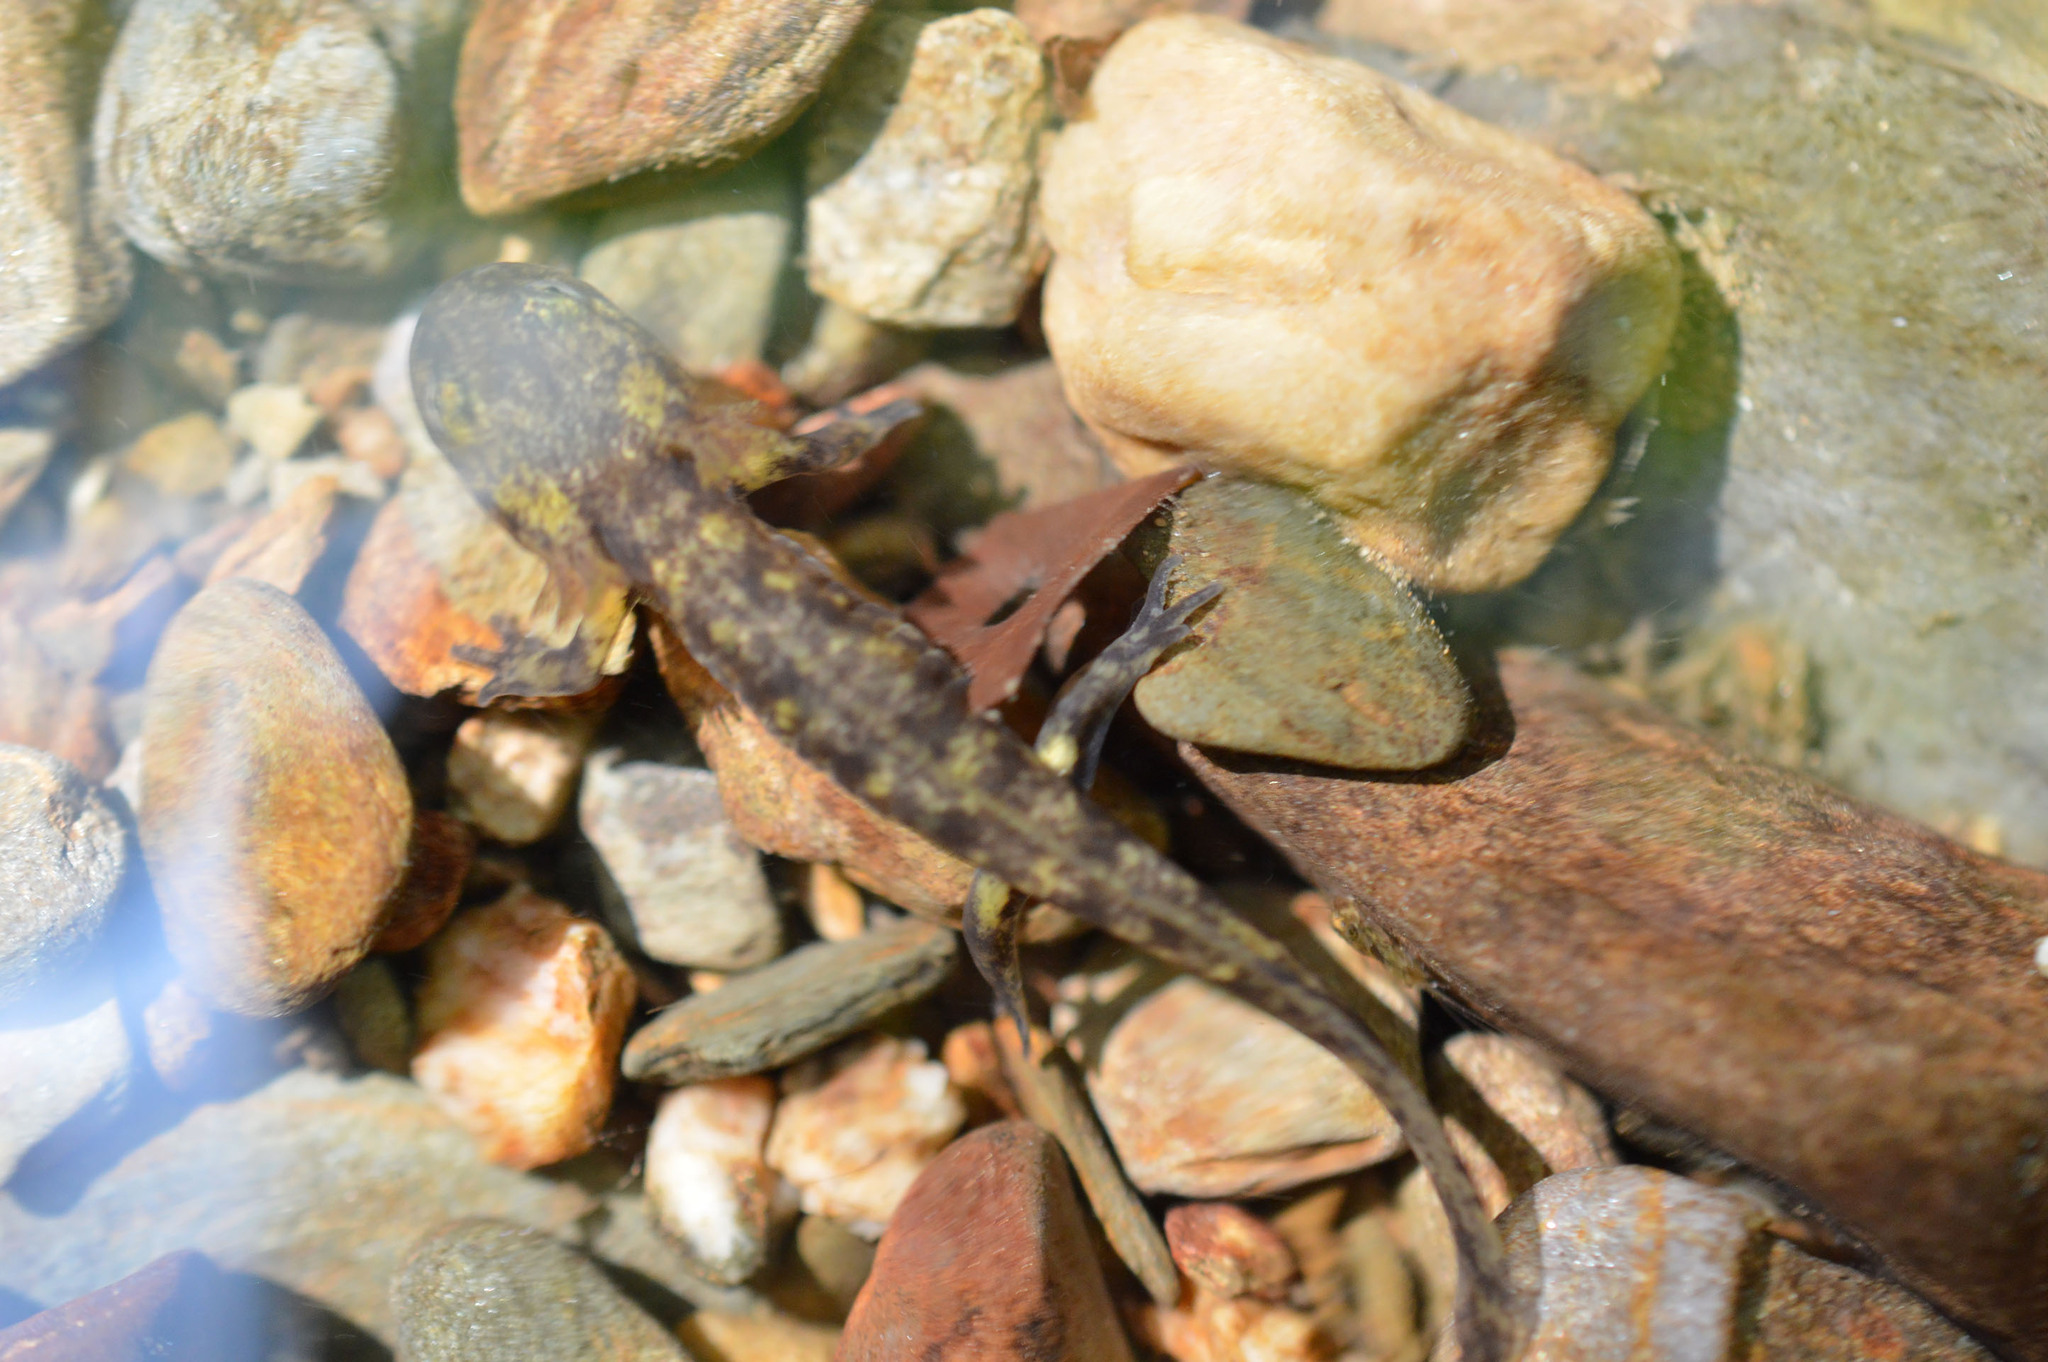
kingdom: Animalia
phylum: Chordata
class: Amphibia
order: Caudata
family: Salamandridae
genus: Salamandra
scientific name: Salamandra salamandra
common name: Fire salamander
